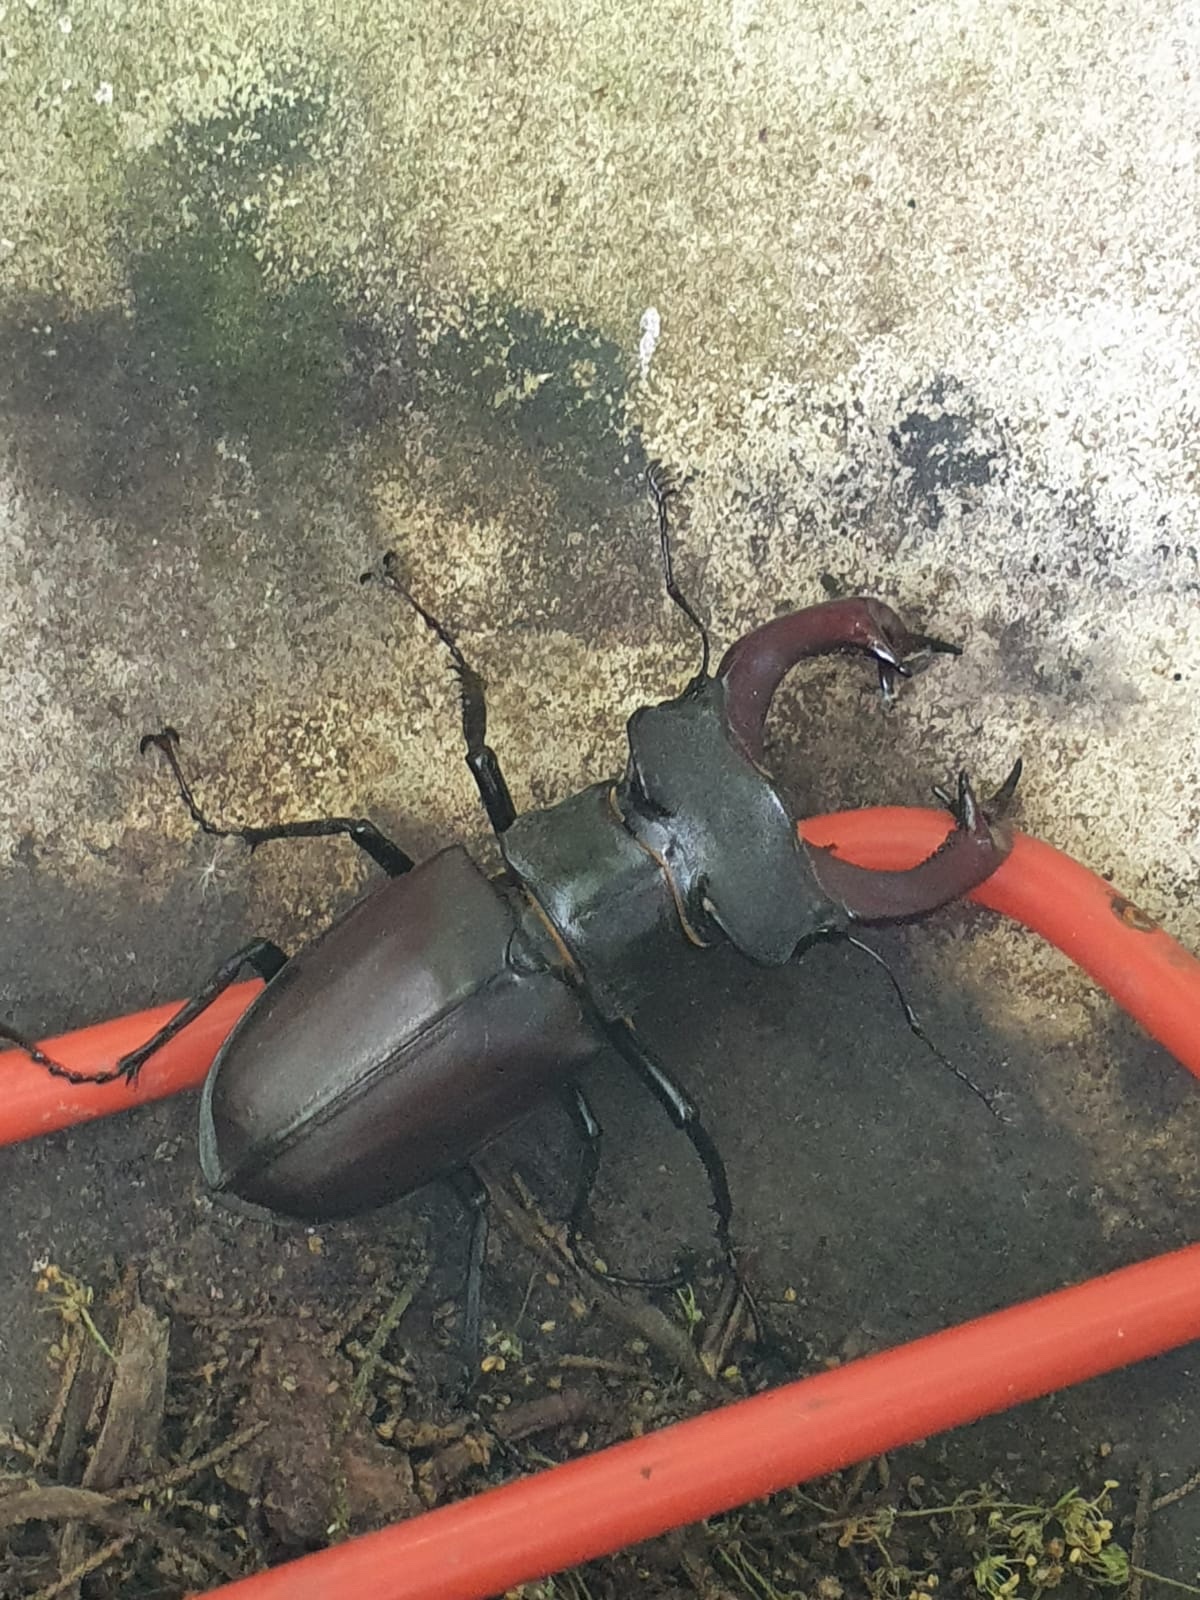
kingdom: Animalia
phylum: Arthropoda
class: Insecta
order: Coleoptera
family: Lucanidae
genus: Lucanus
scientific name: Lucanus cervus
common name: Stag beetle
